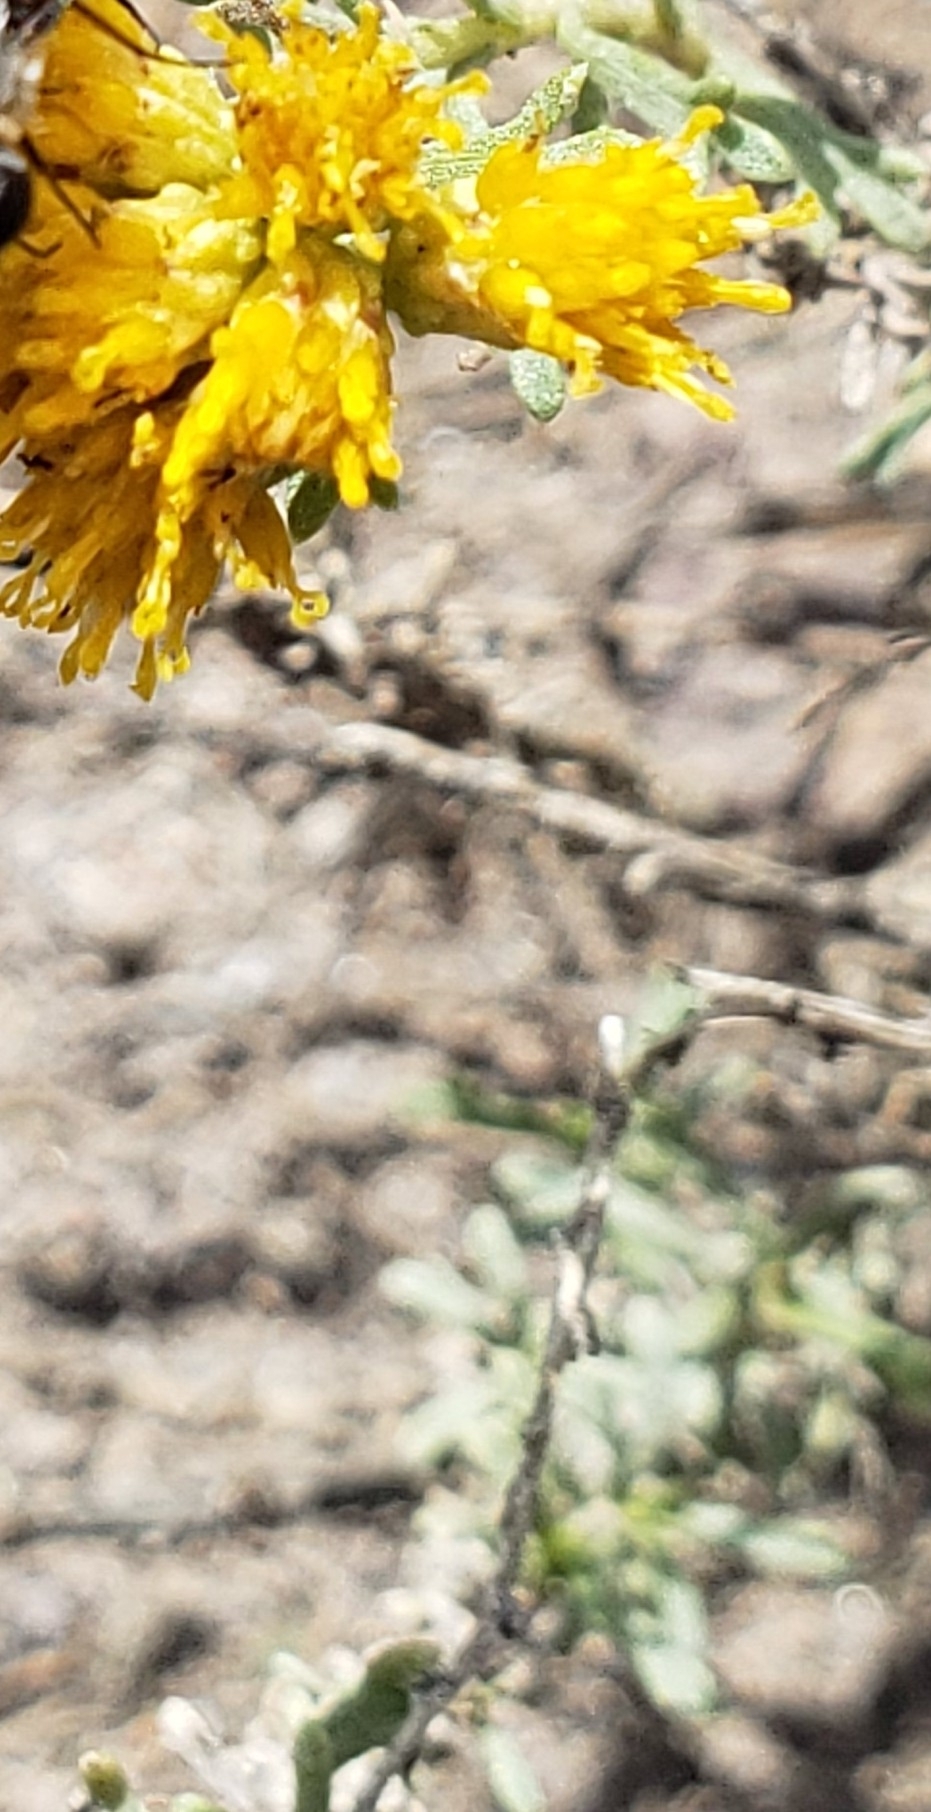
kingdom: Plantae
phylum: Tracheophyta
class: Magnoliopsida
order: Asterales
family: Asteraceae
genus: Isocoma
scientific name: Isocoma veneta
